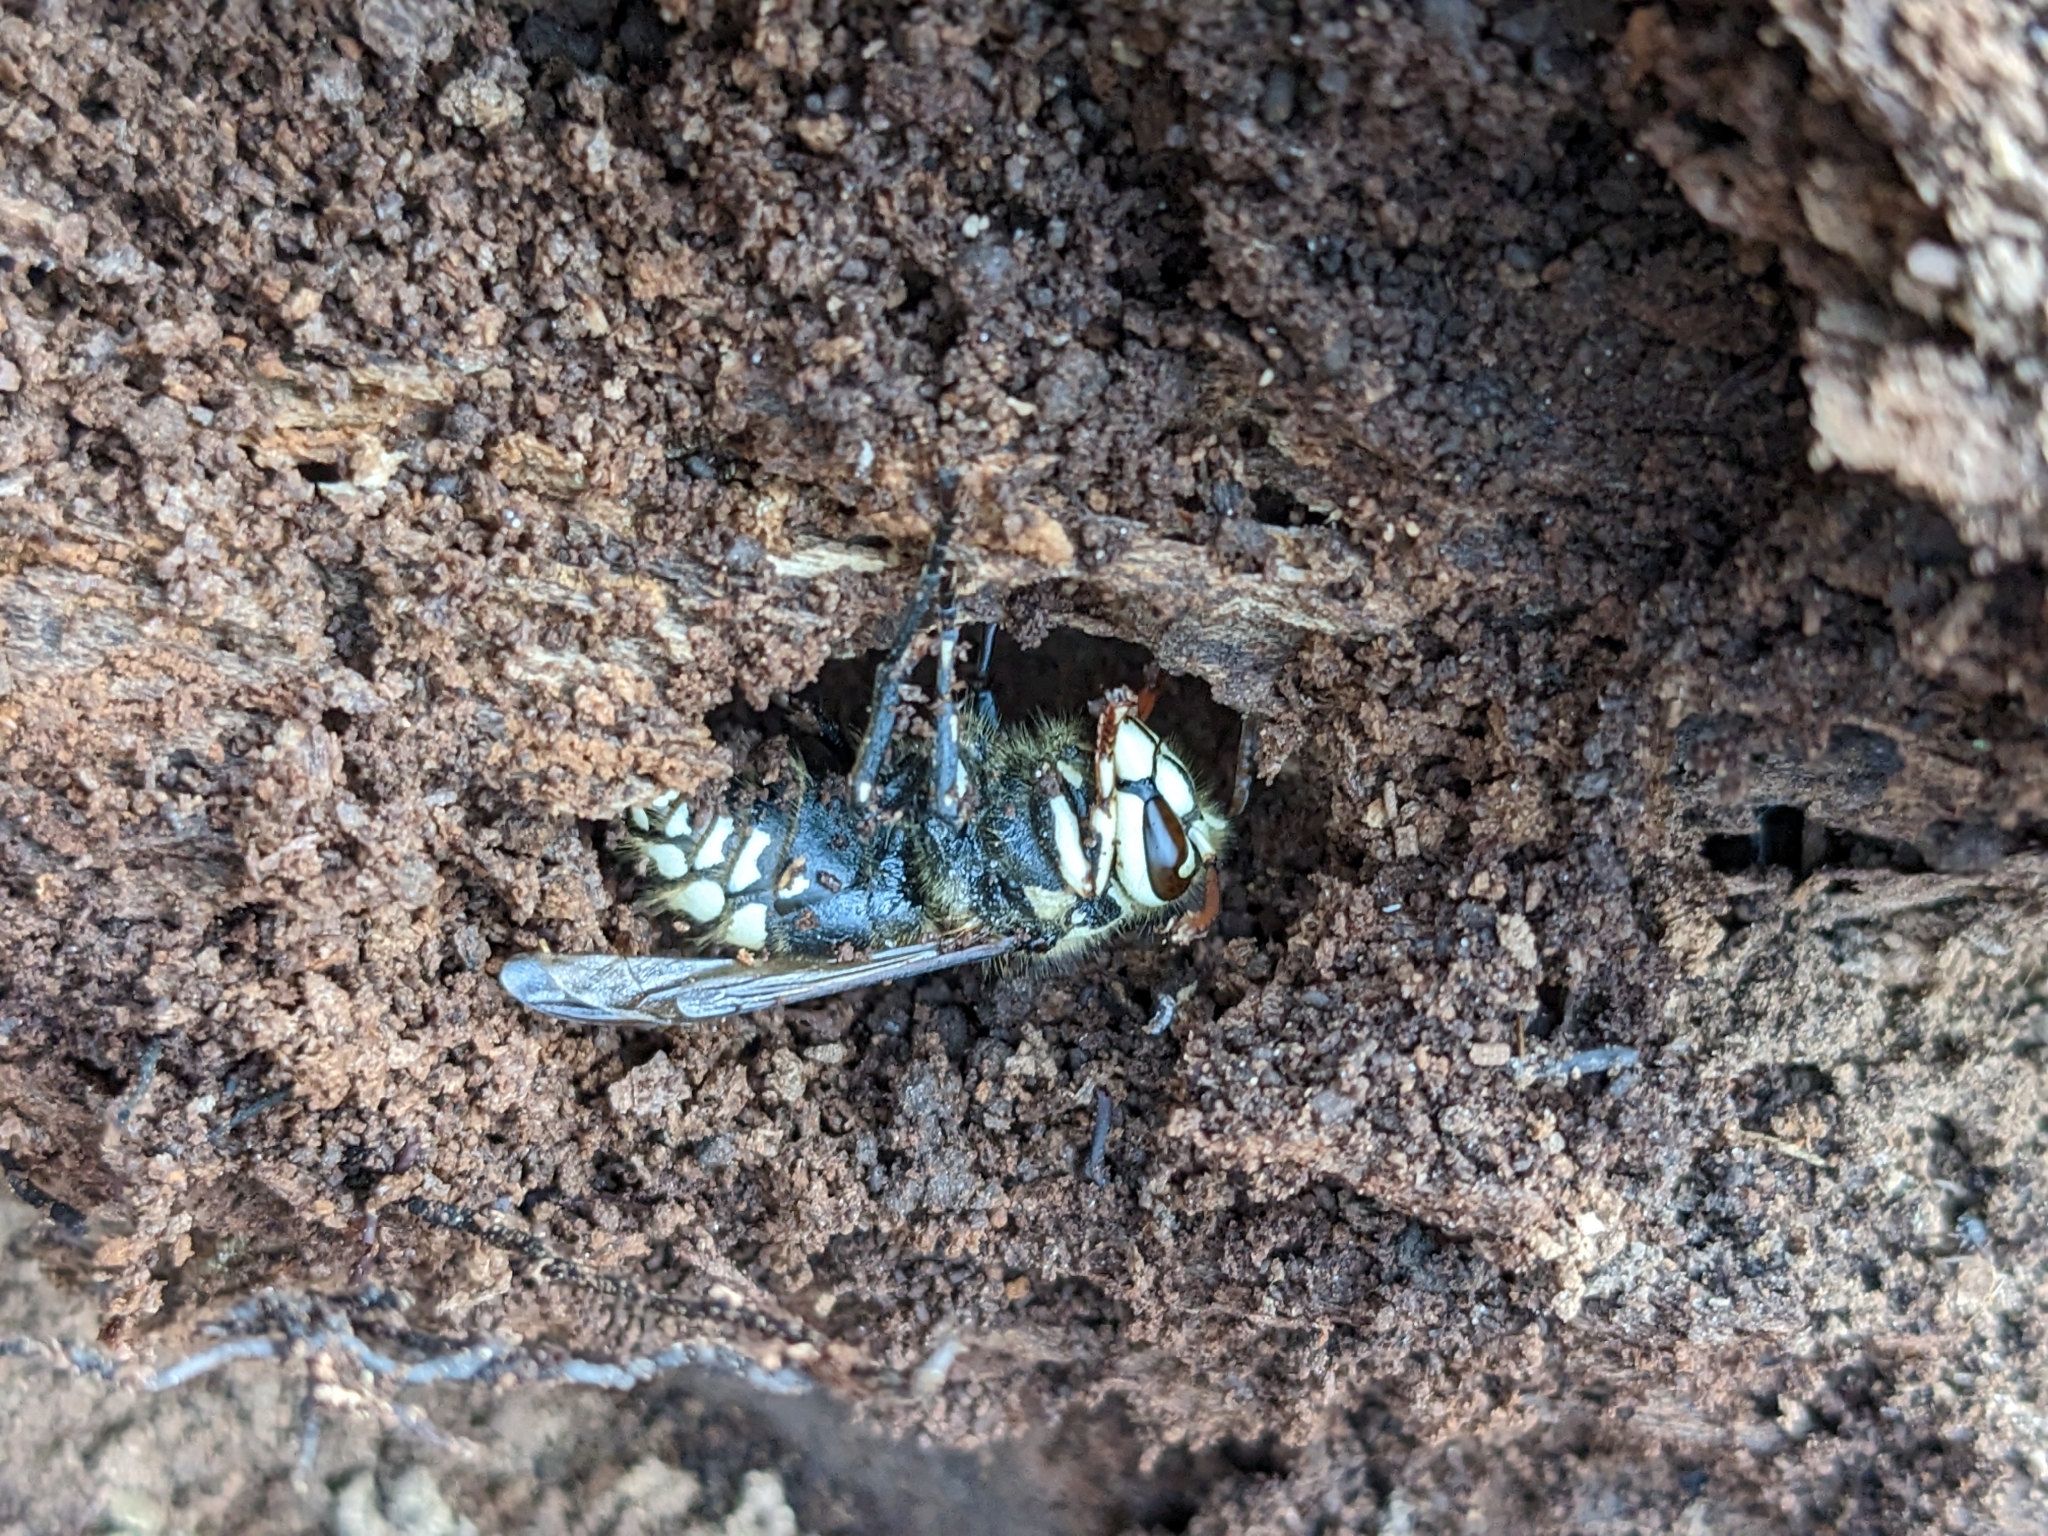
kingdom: Animalia
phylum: Arthropoda
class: Insecta
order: Hymenoptera
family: Vespidae
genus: Dolichovespula
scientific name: Dolichovespula maculata
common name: Bald-faced hornet
